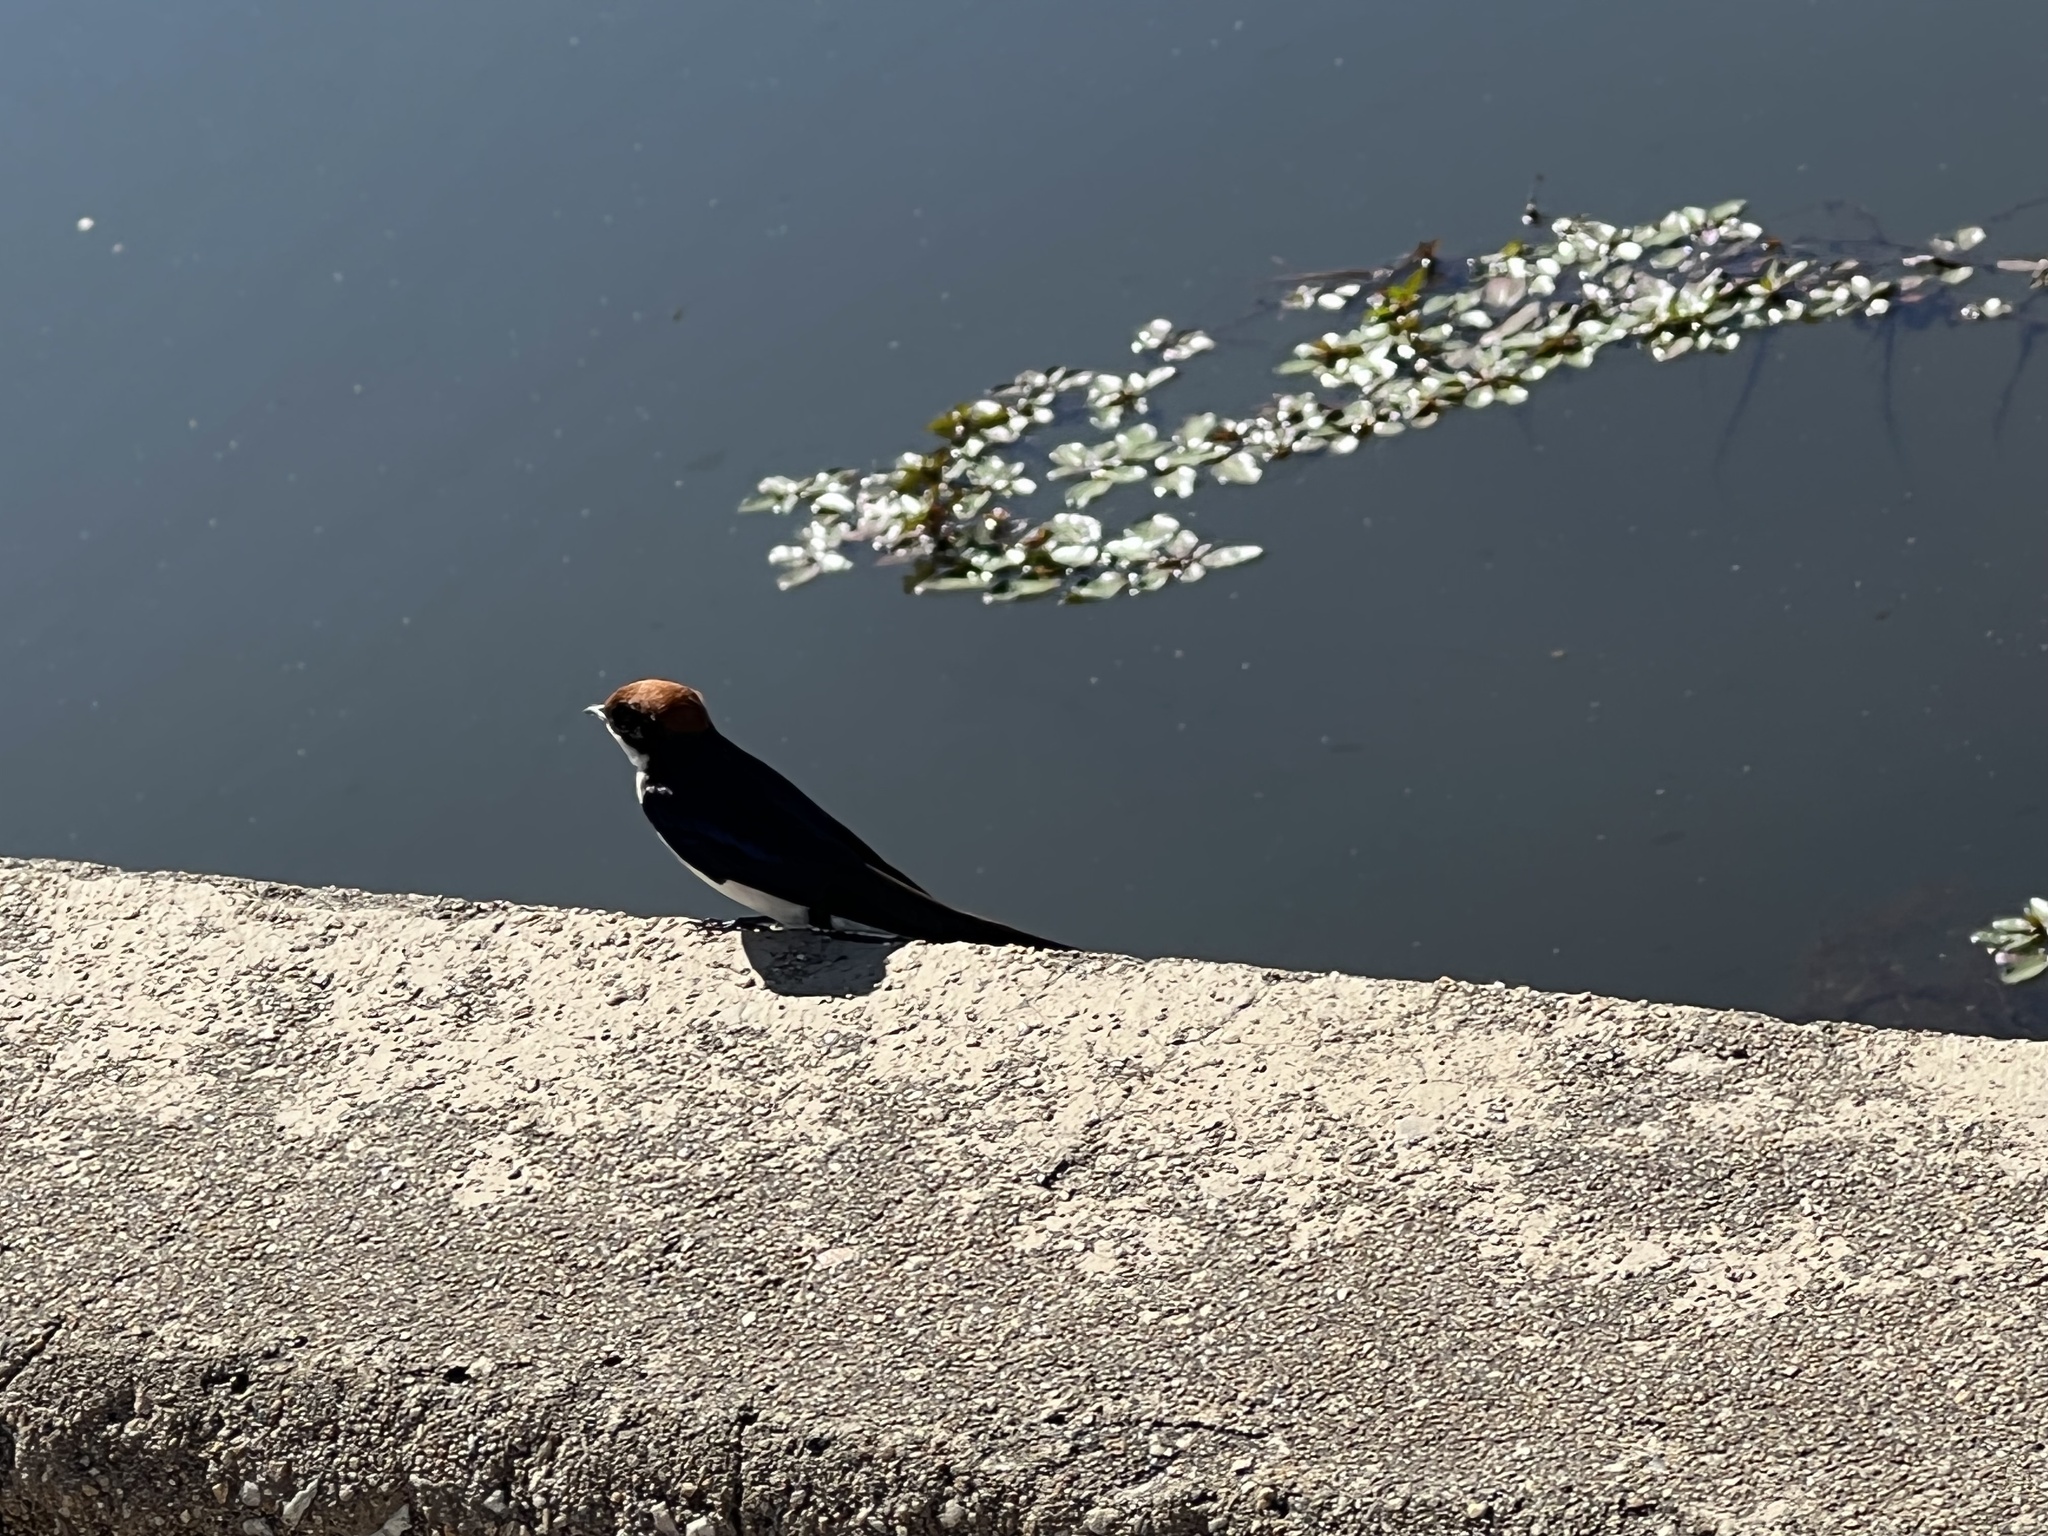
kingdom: Animalia
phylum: Chordata
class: Aves
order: Passeriformes
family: Hirundinidae
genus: Hirundo
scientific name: Hirundo smithii
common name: Wire-tailed swallow
